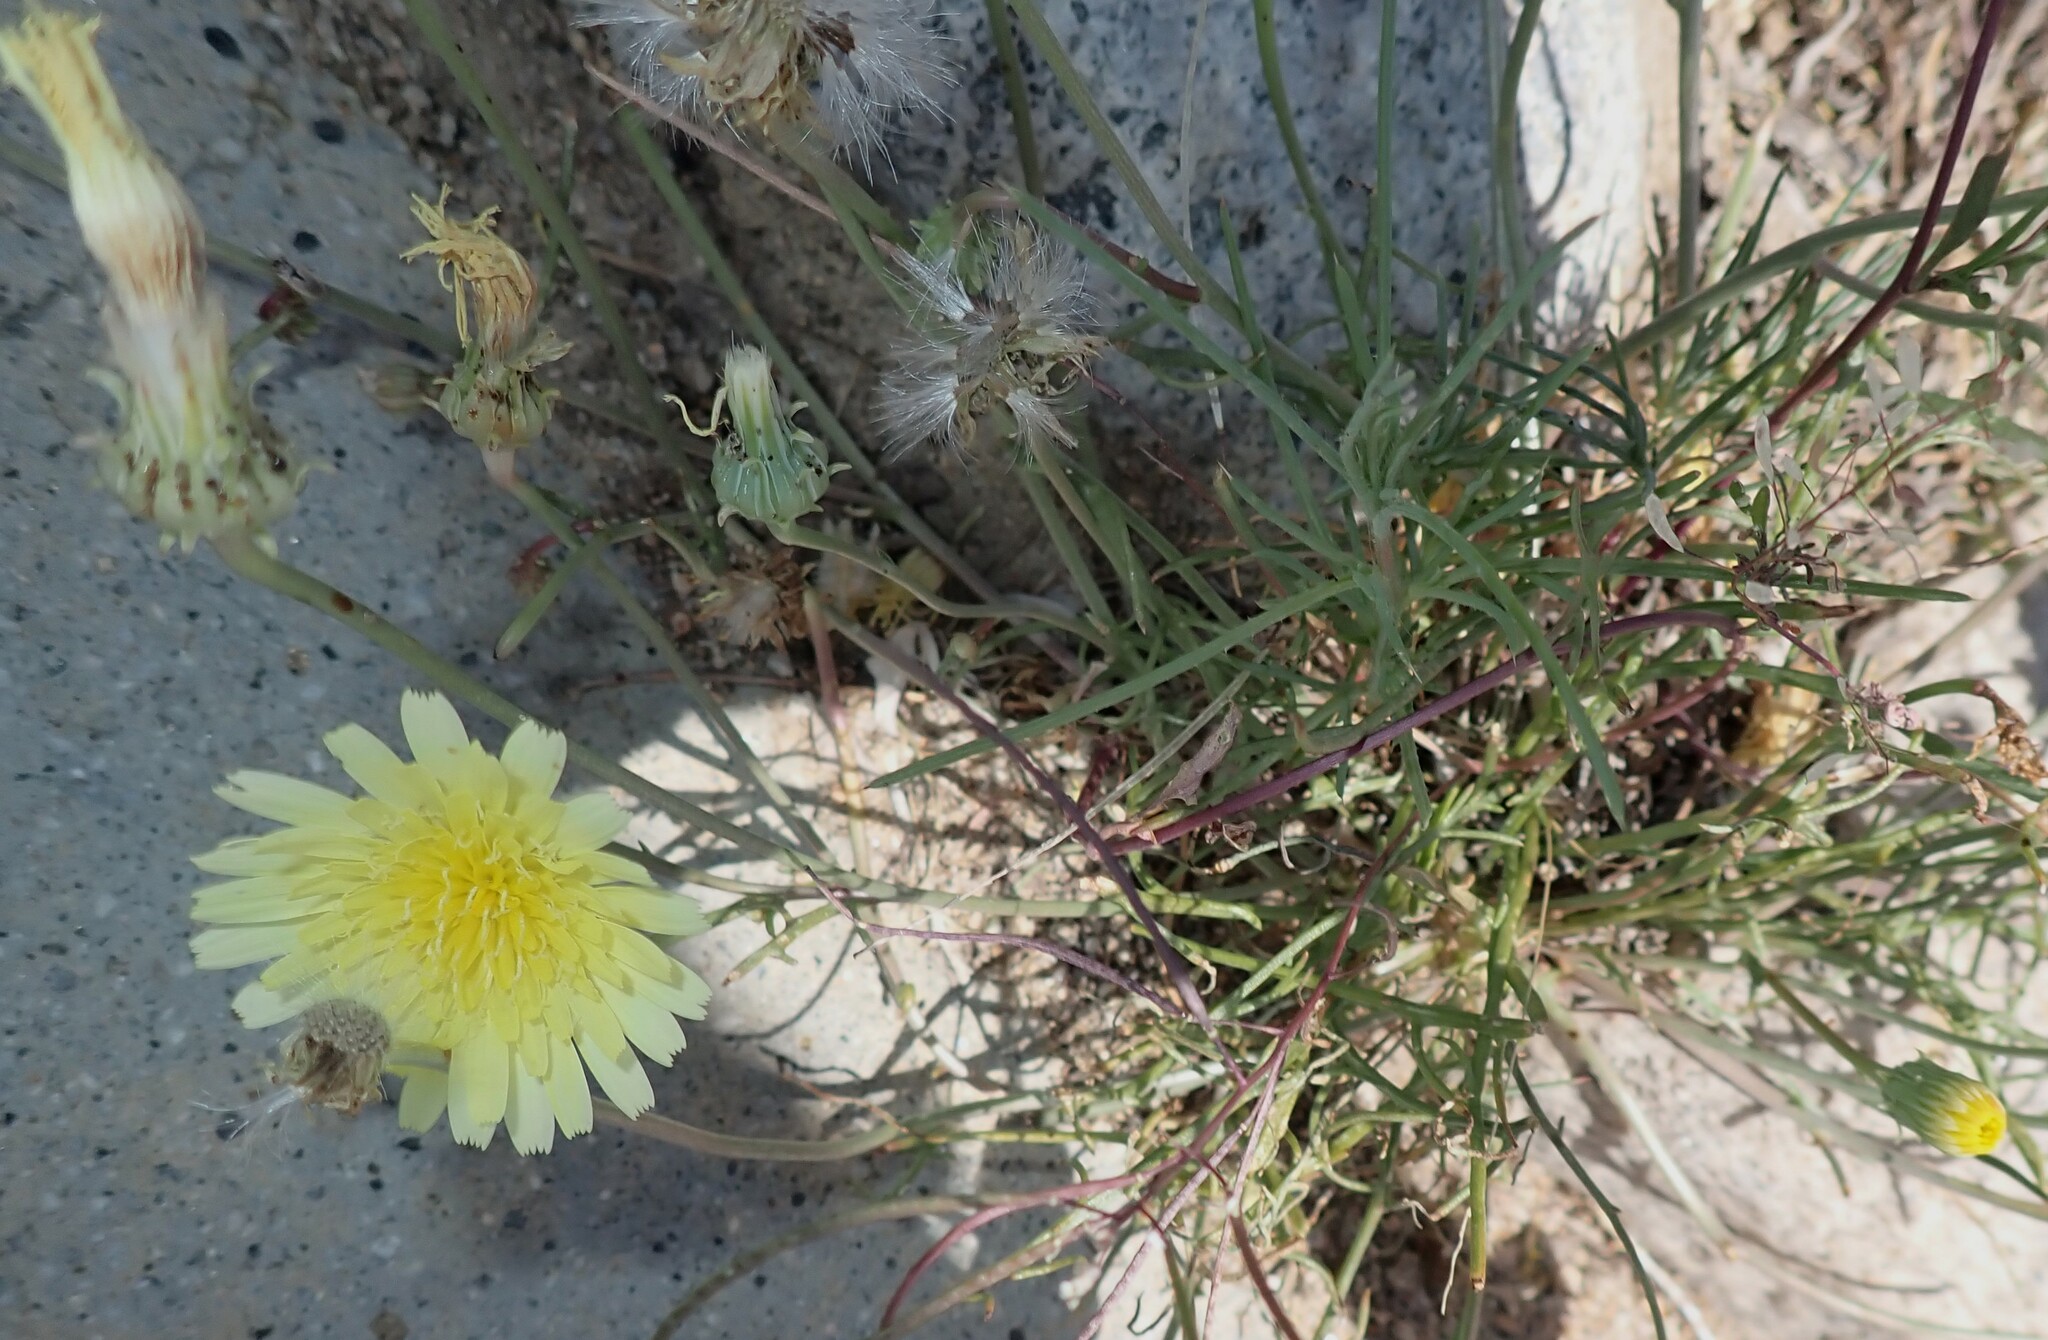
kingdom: Plantae
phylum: Tracheophyta
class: Magnoliopsida
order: Asterales
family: Asteraceae
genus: Malacothrix
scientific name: Malacothrix glabrata
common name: Smooth desert-dandelion
